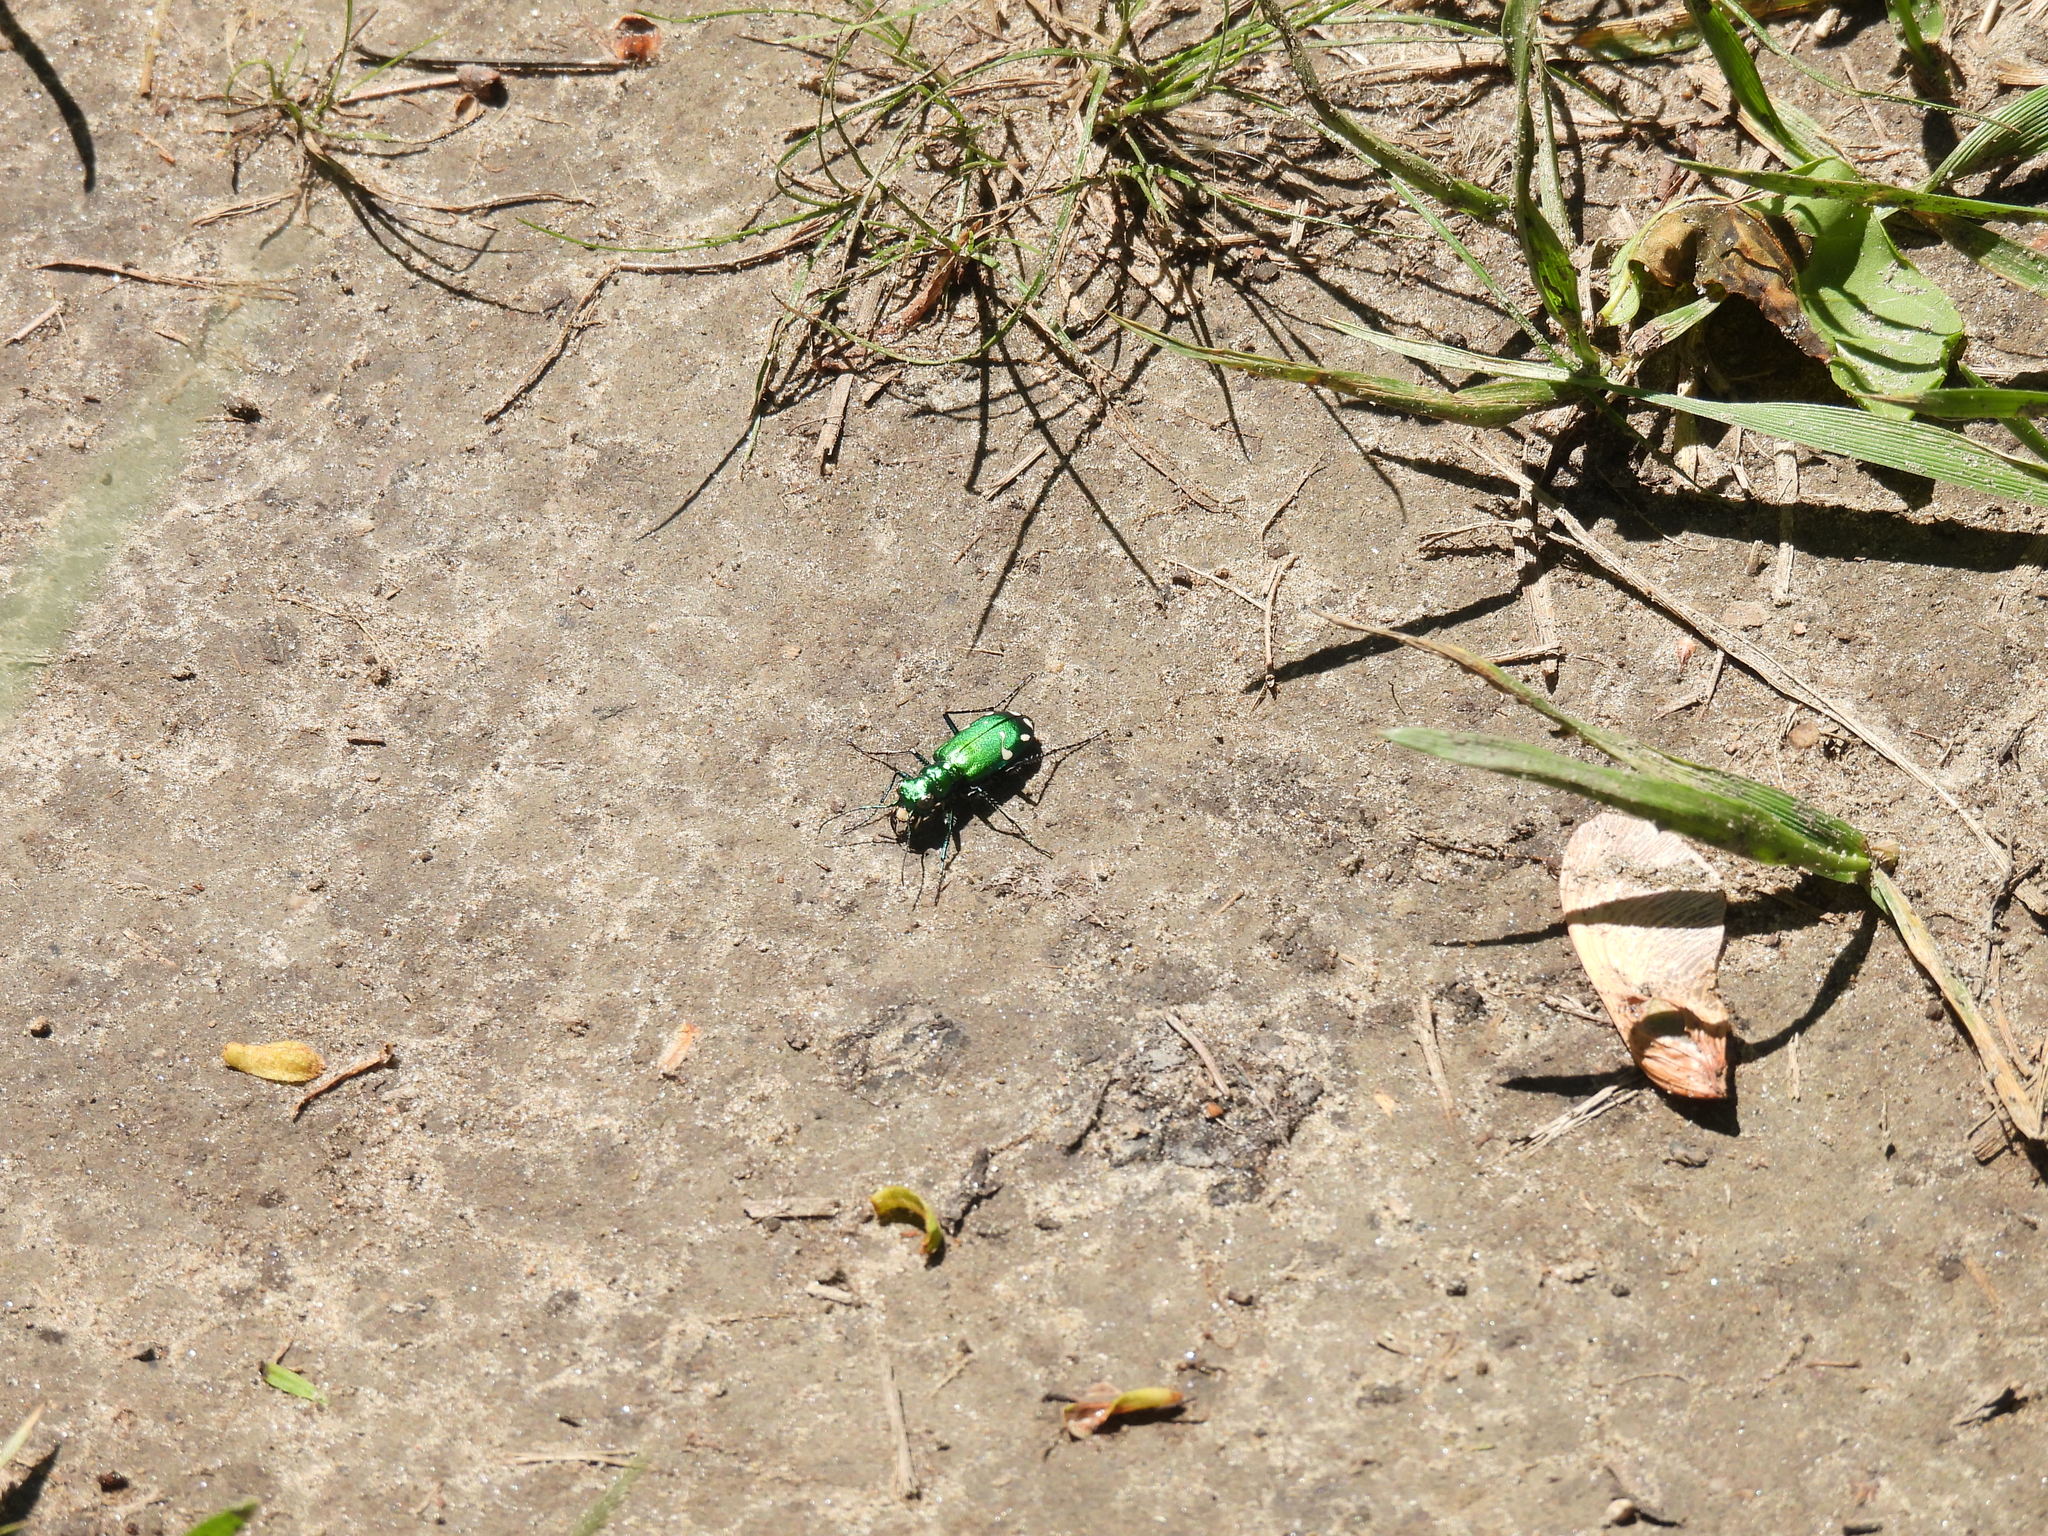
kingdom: Animalia
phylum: Arthropoda
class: Insecta
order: Coleoptera
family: Carabidae
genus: Cicindela
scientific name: Cicindela sexguttata
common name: Six-spotted tiger beetle
